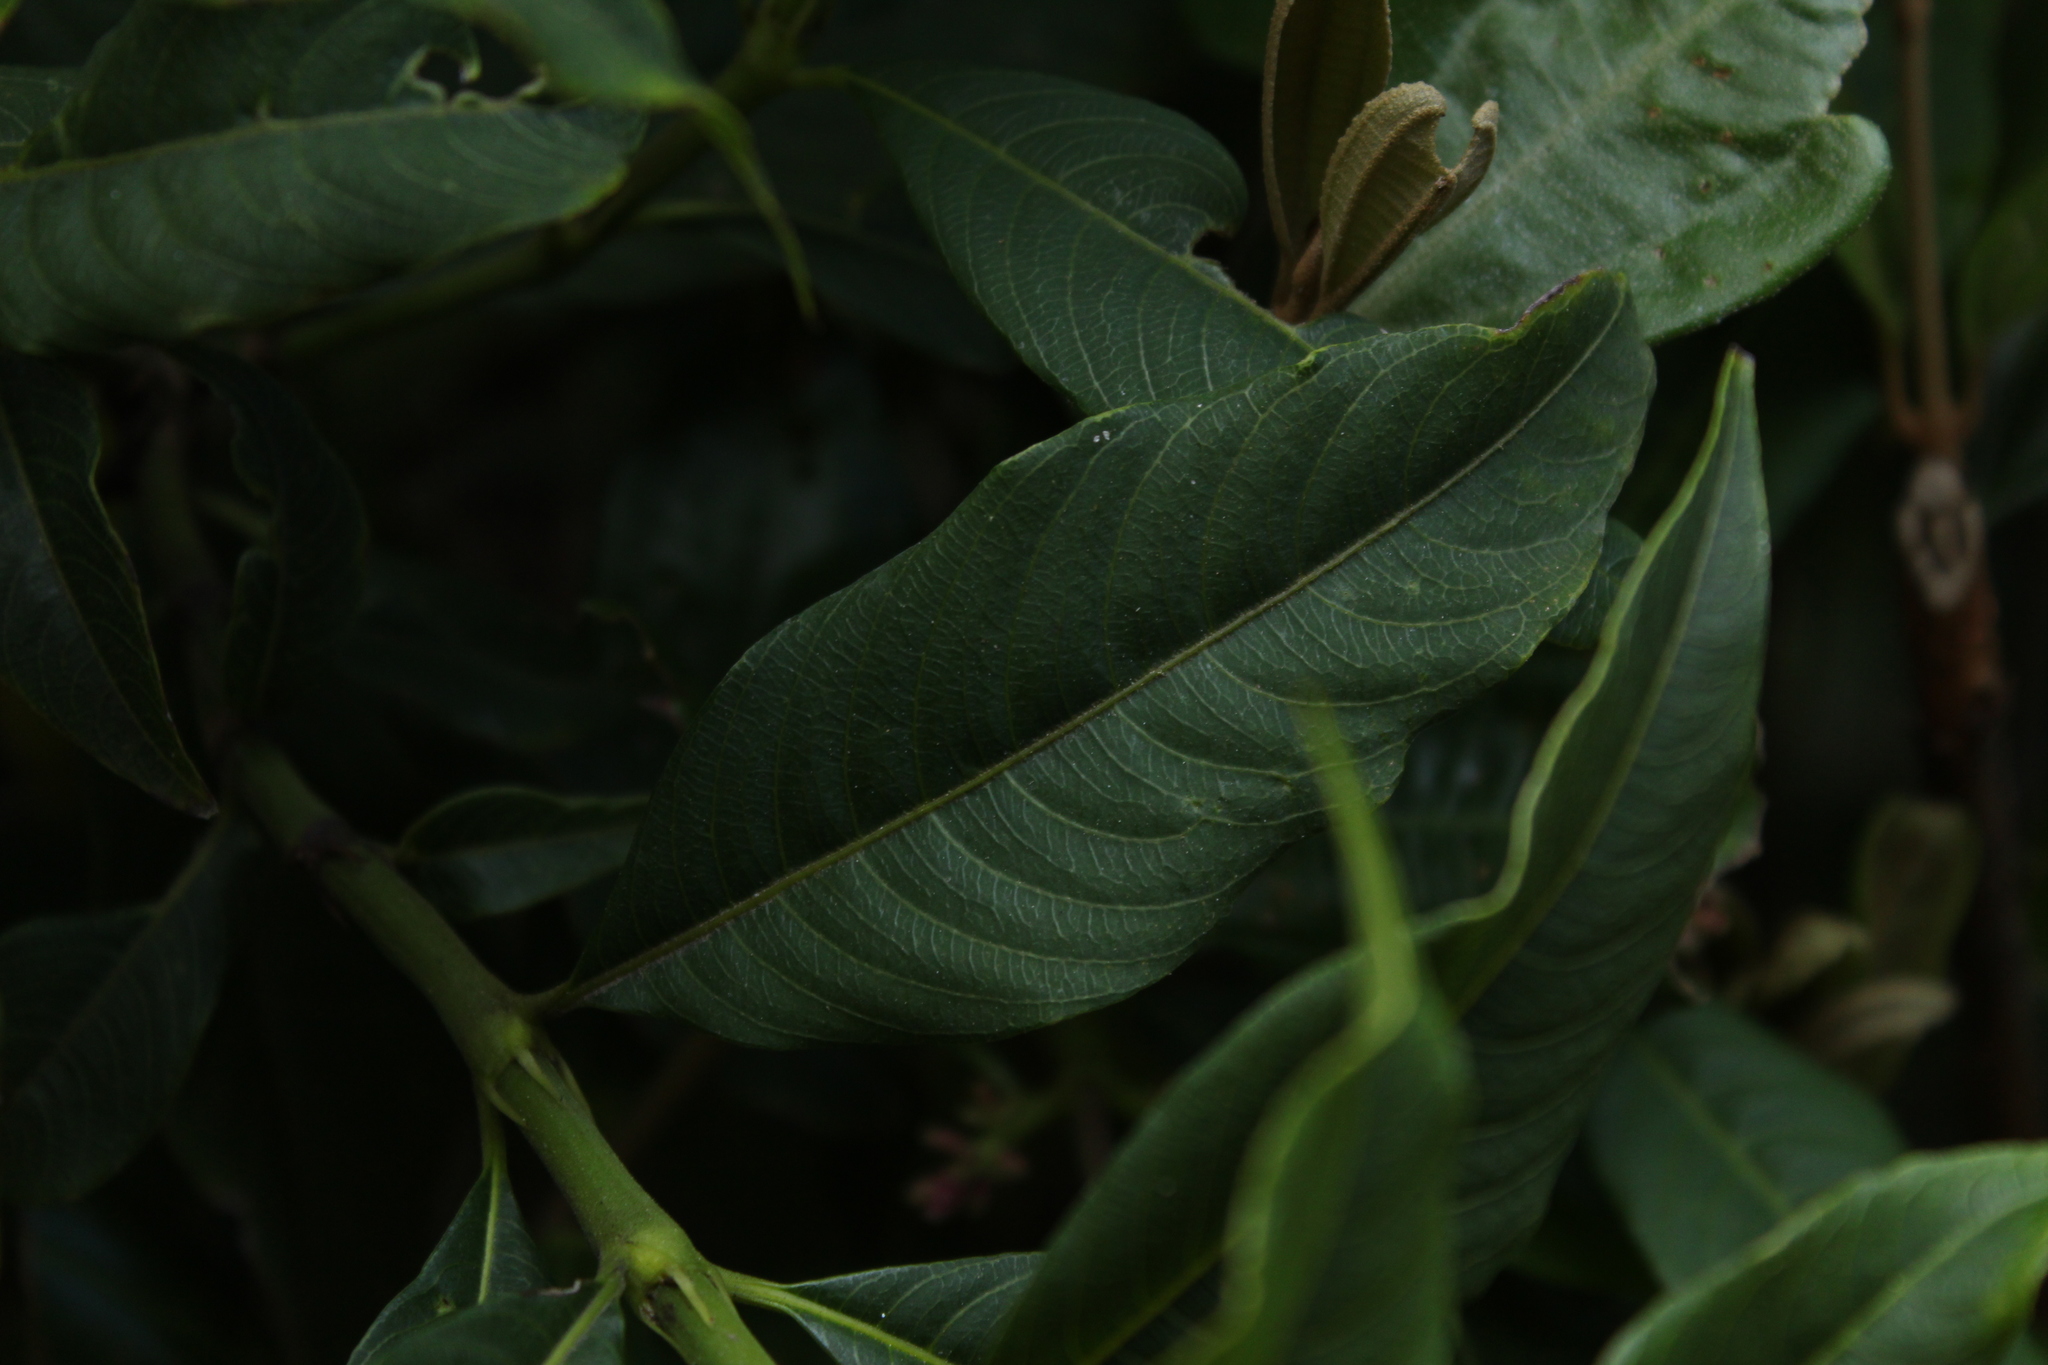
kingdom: Plantae
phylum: Tracheophyta
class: Magnoliopsida
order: Gentianales
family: Rubiaceae
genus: Palicourea
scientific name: Palicourea angustifolia
